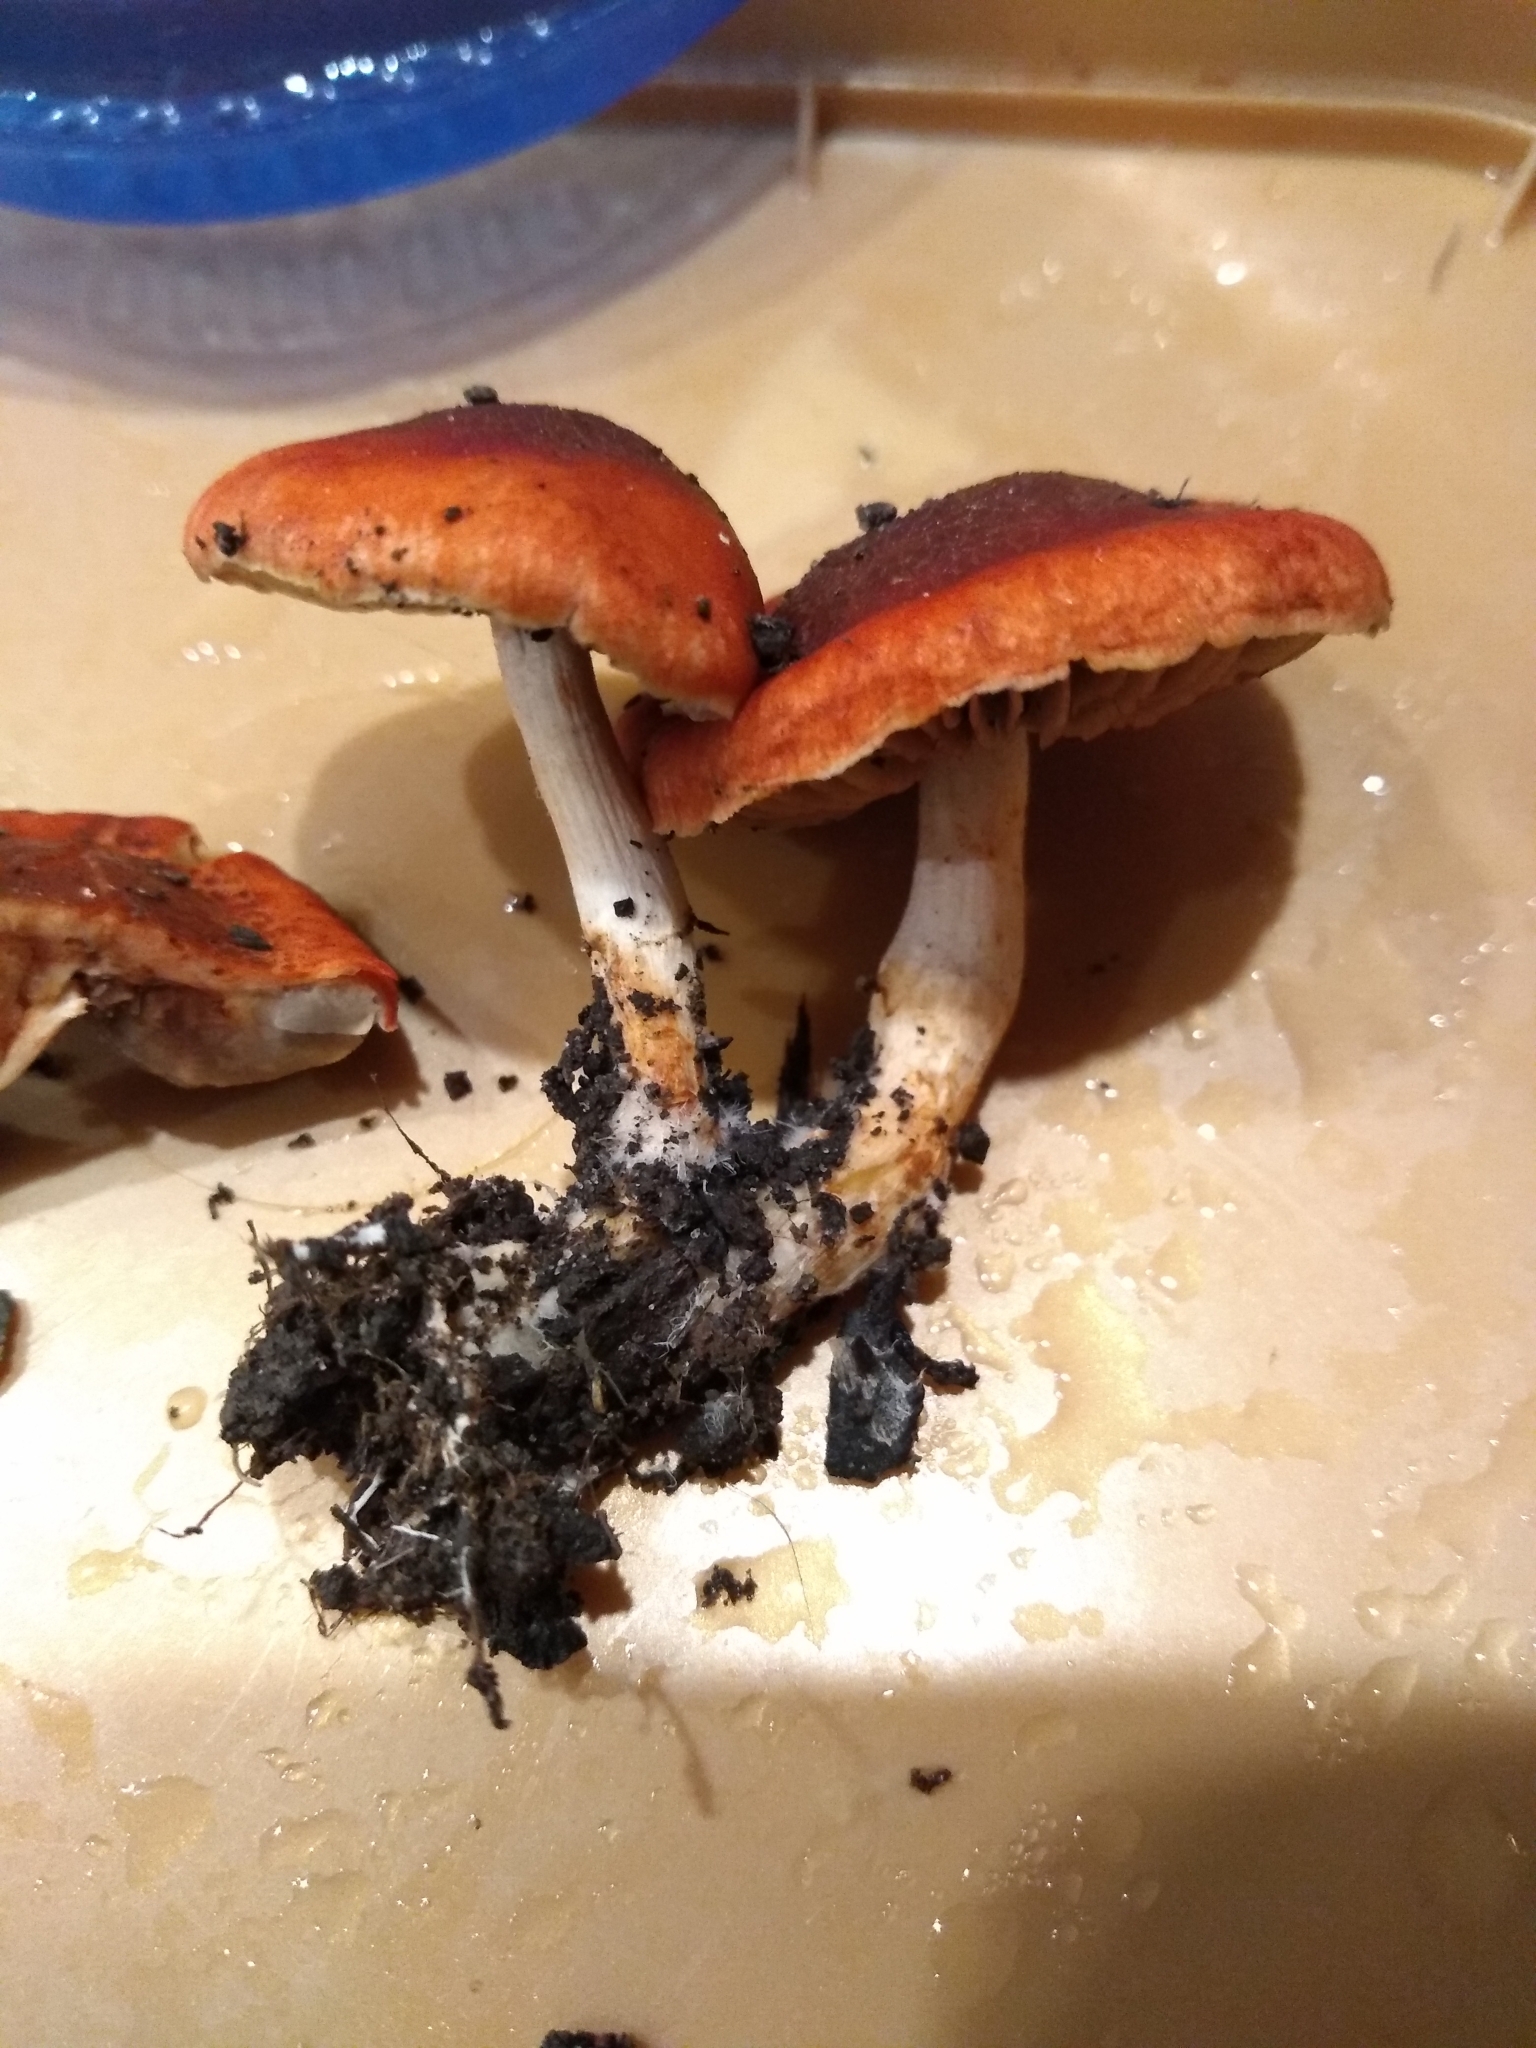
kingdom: Fungi
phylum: Basidiomycota
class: Agaricomycetes
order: Agaricales
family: Strophariaceae
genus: Leratiomyces
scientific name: Leratiomyces ceres
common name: Redlead roundhead
